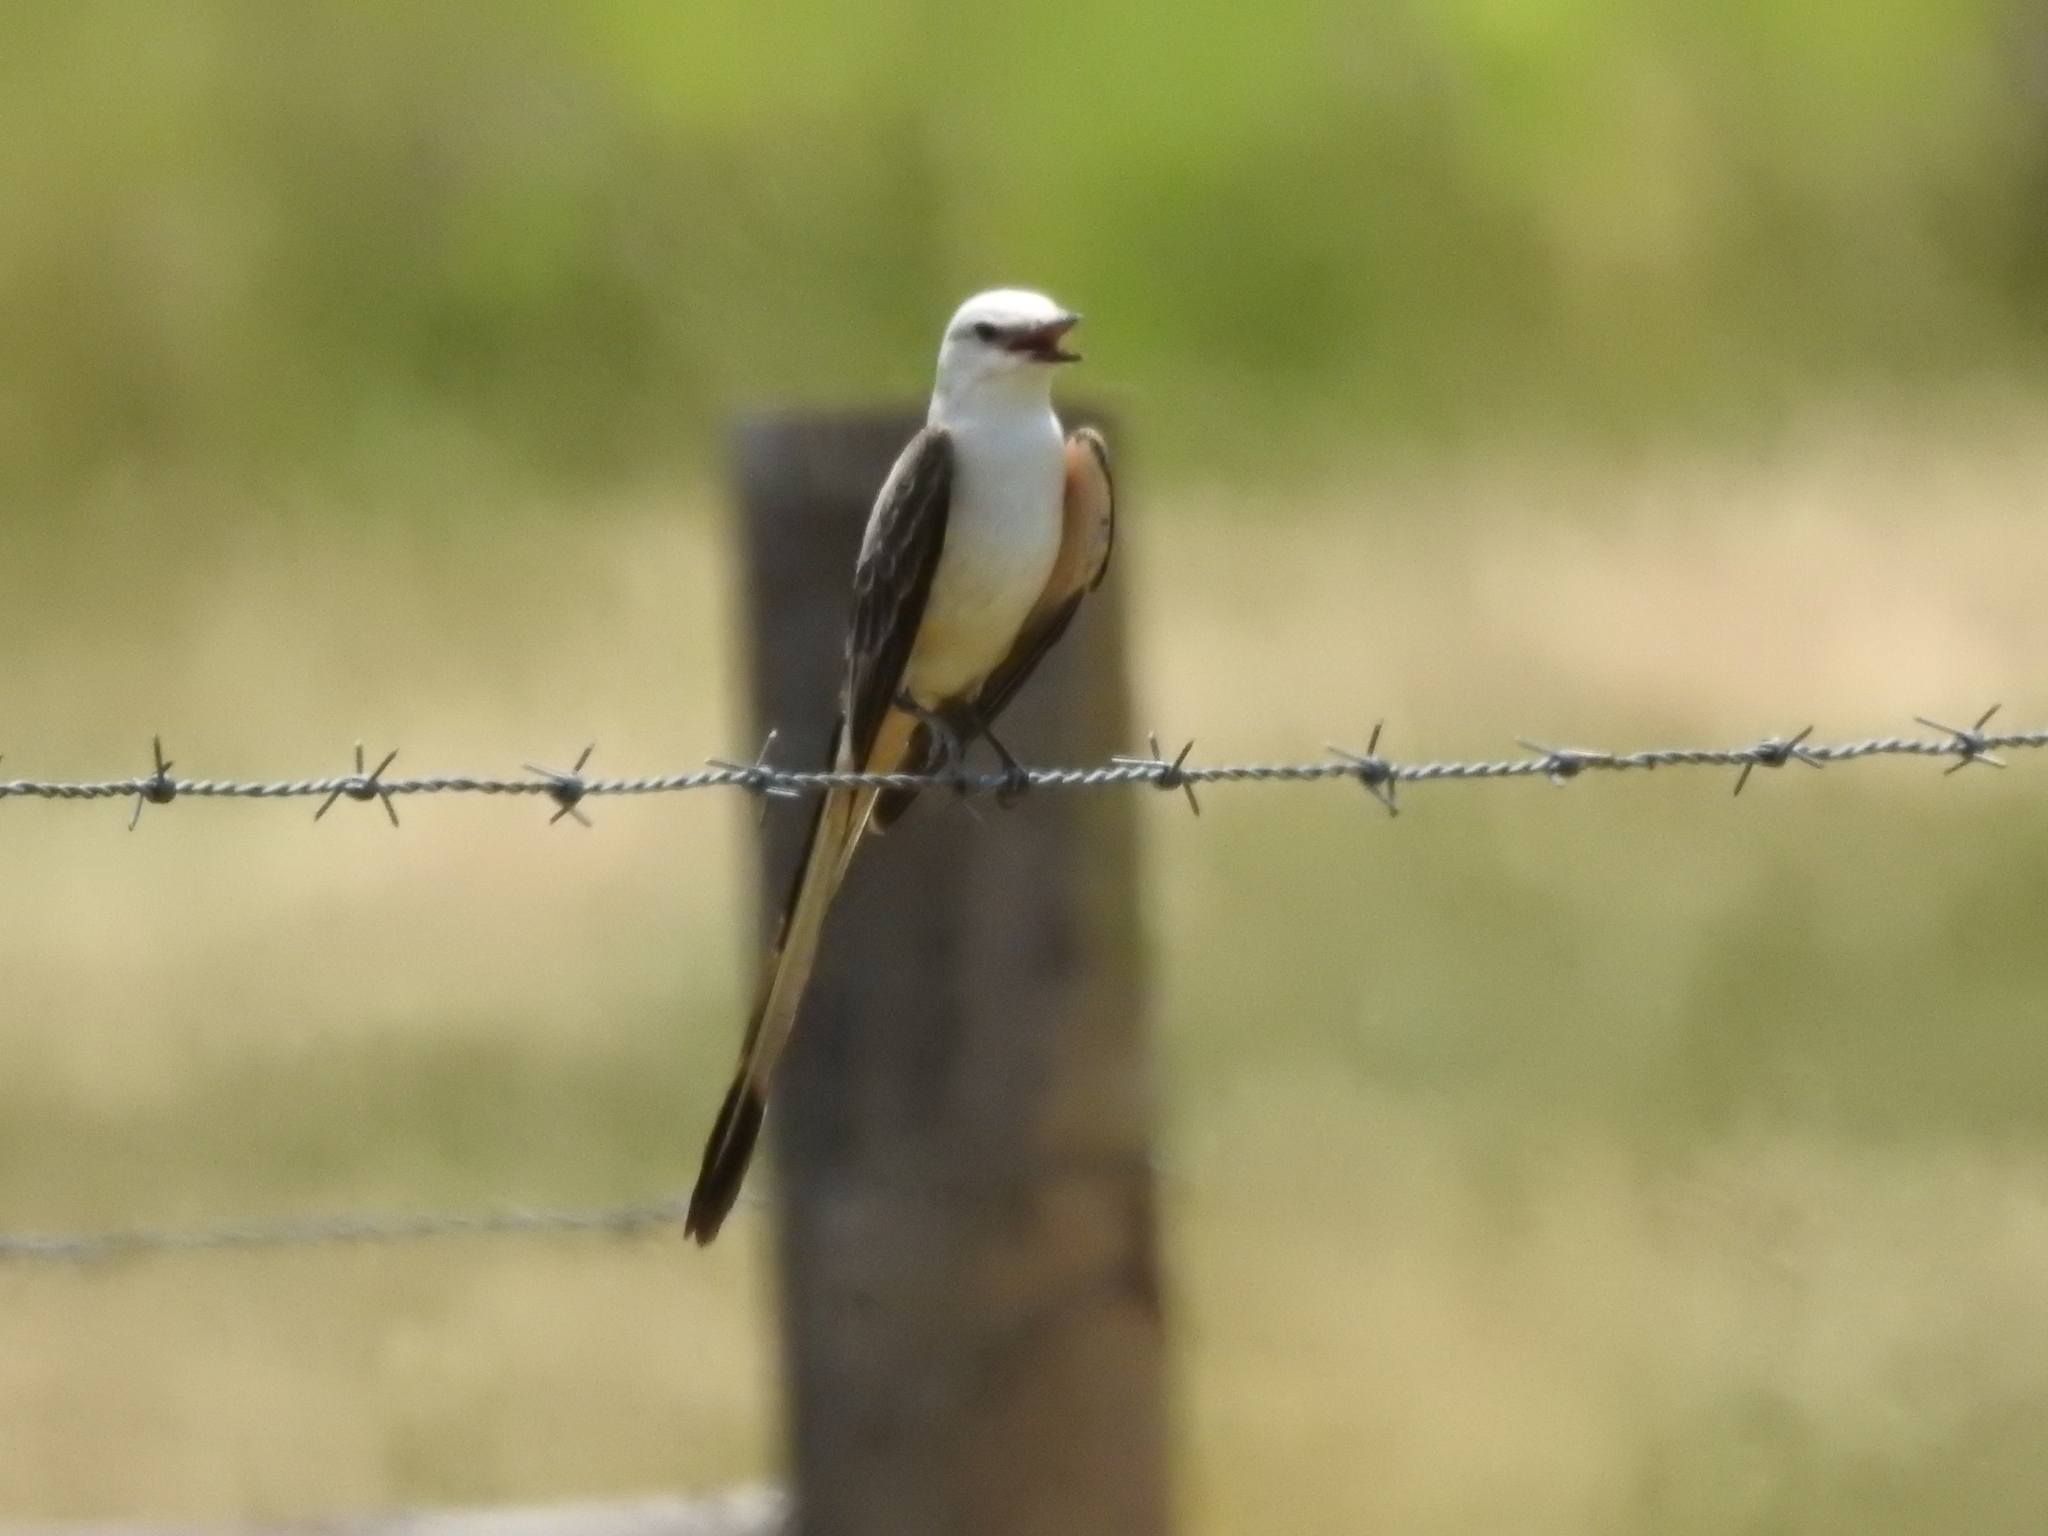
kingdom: Animalia
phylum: Chordata
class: Aves
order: Passeriformes
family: Tyrannidae
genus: Tyrannus
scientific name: Tyrannus forficatus
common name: Scissor-tailed flycatcher
